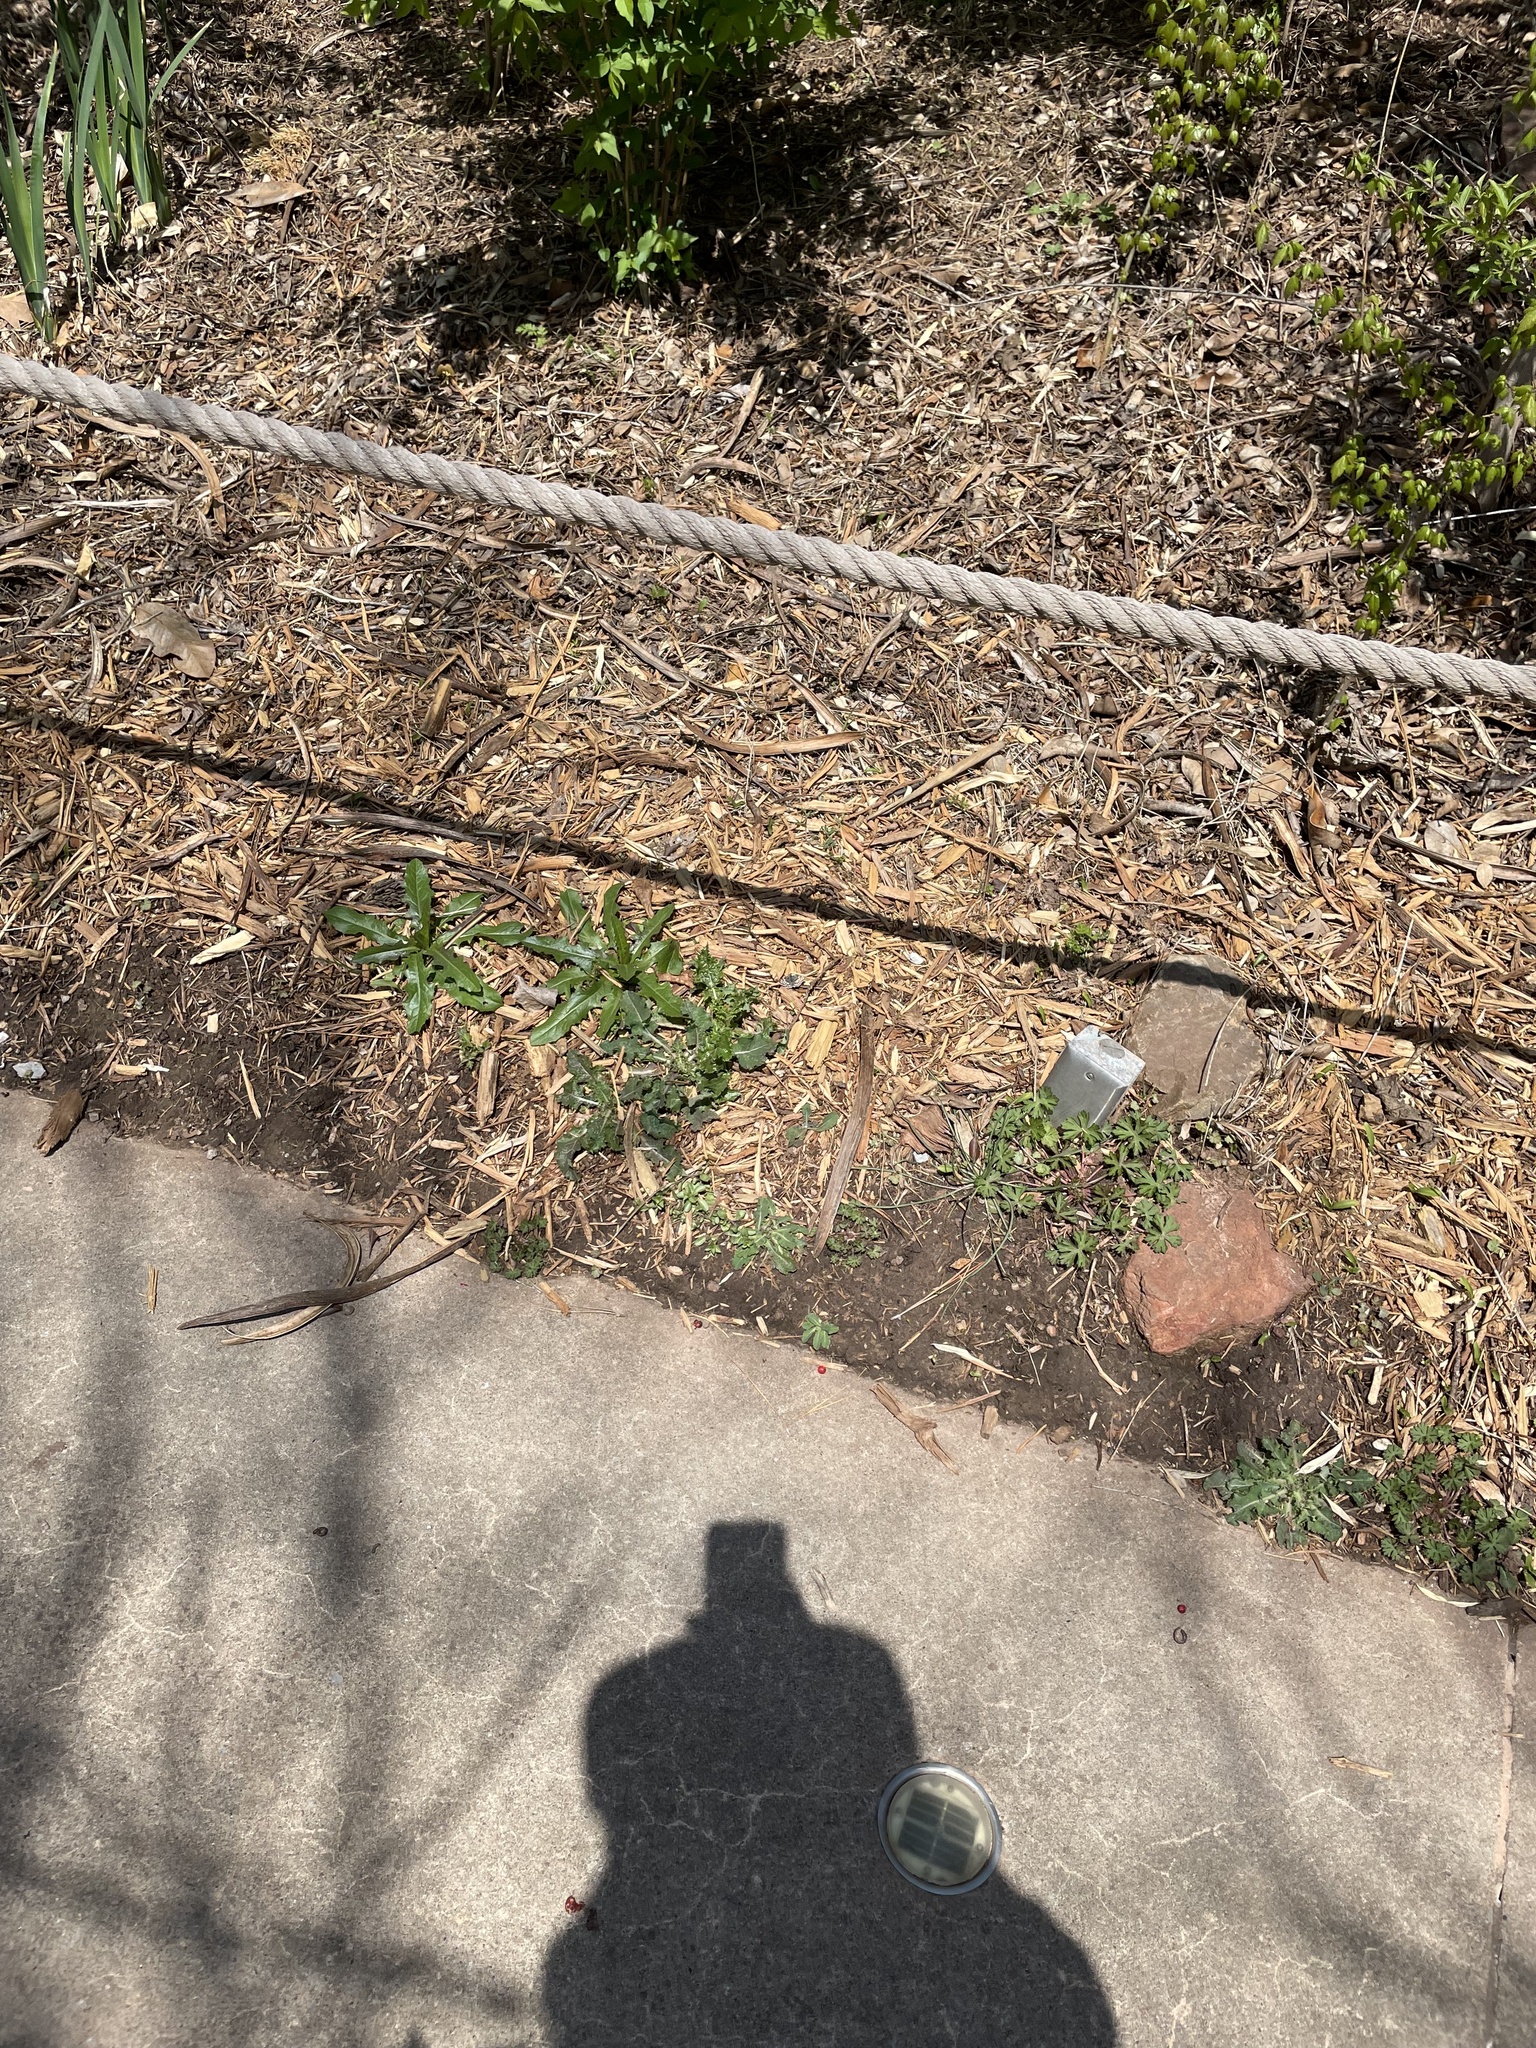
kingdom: Animalia
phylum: Arthropoda
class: Insecta
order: Lepidoptera
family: Hesperiidae
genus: Burnsius
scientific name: Burnsius communis
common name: Common checkered-skipper
